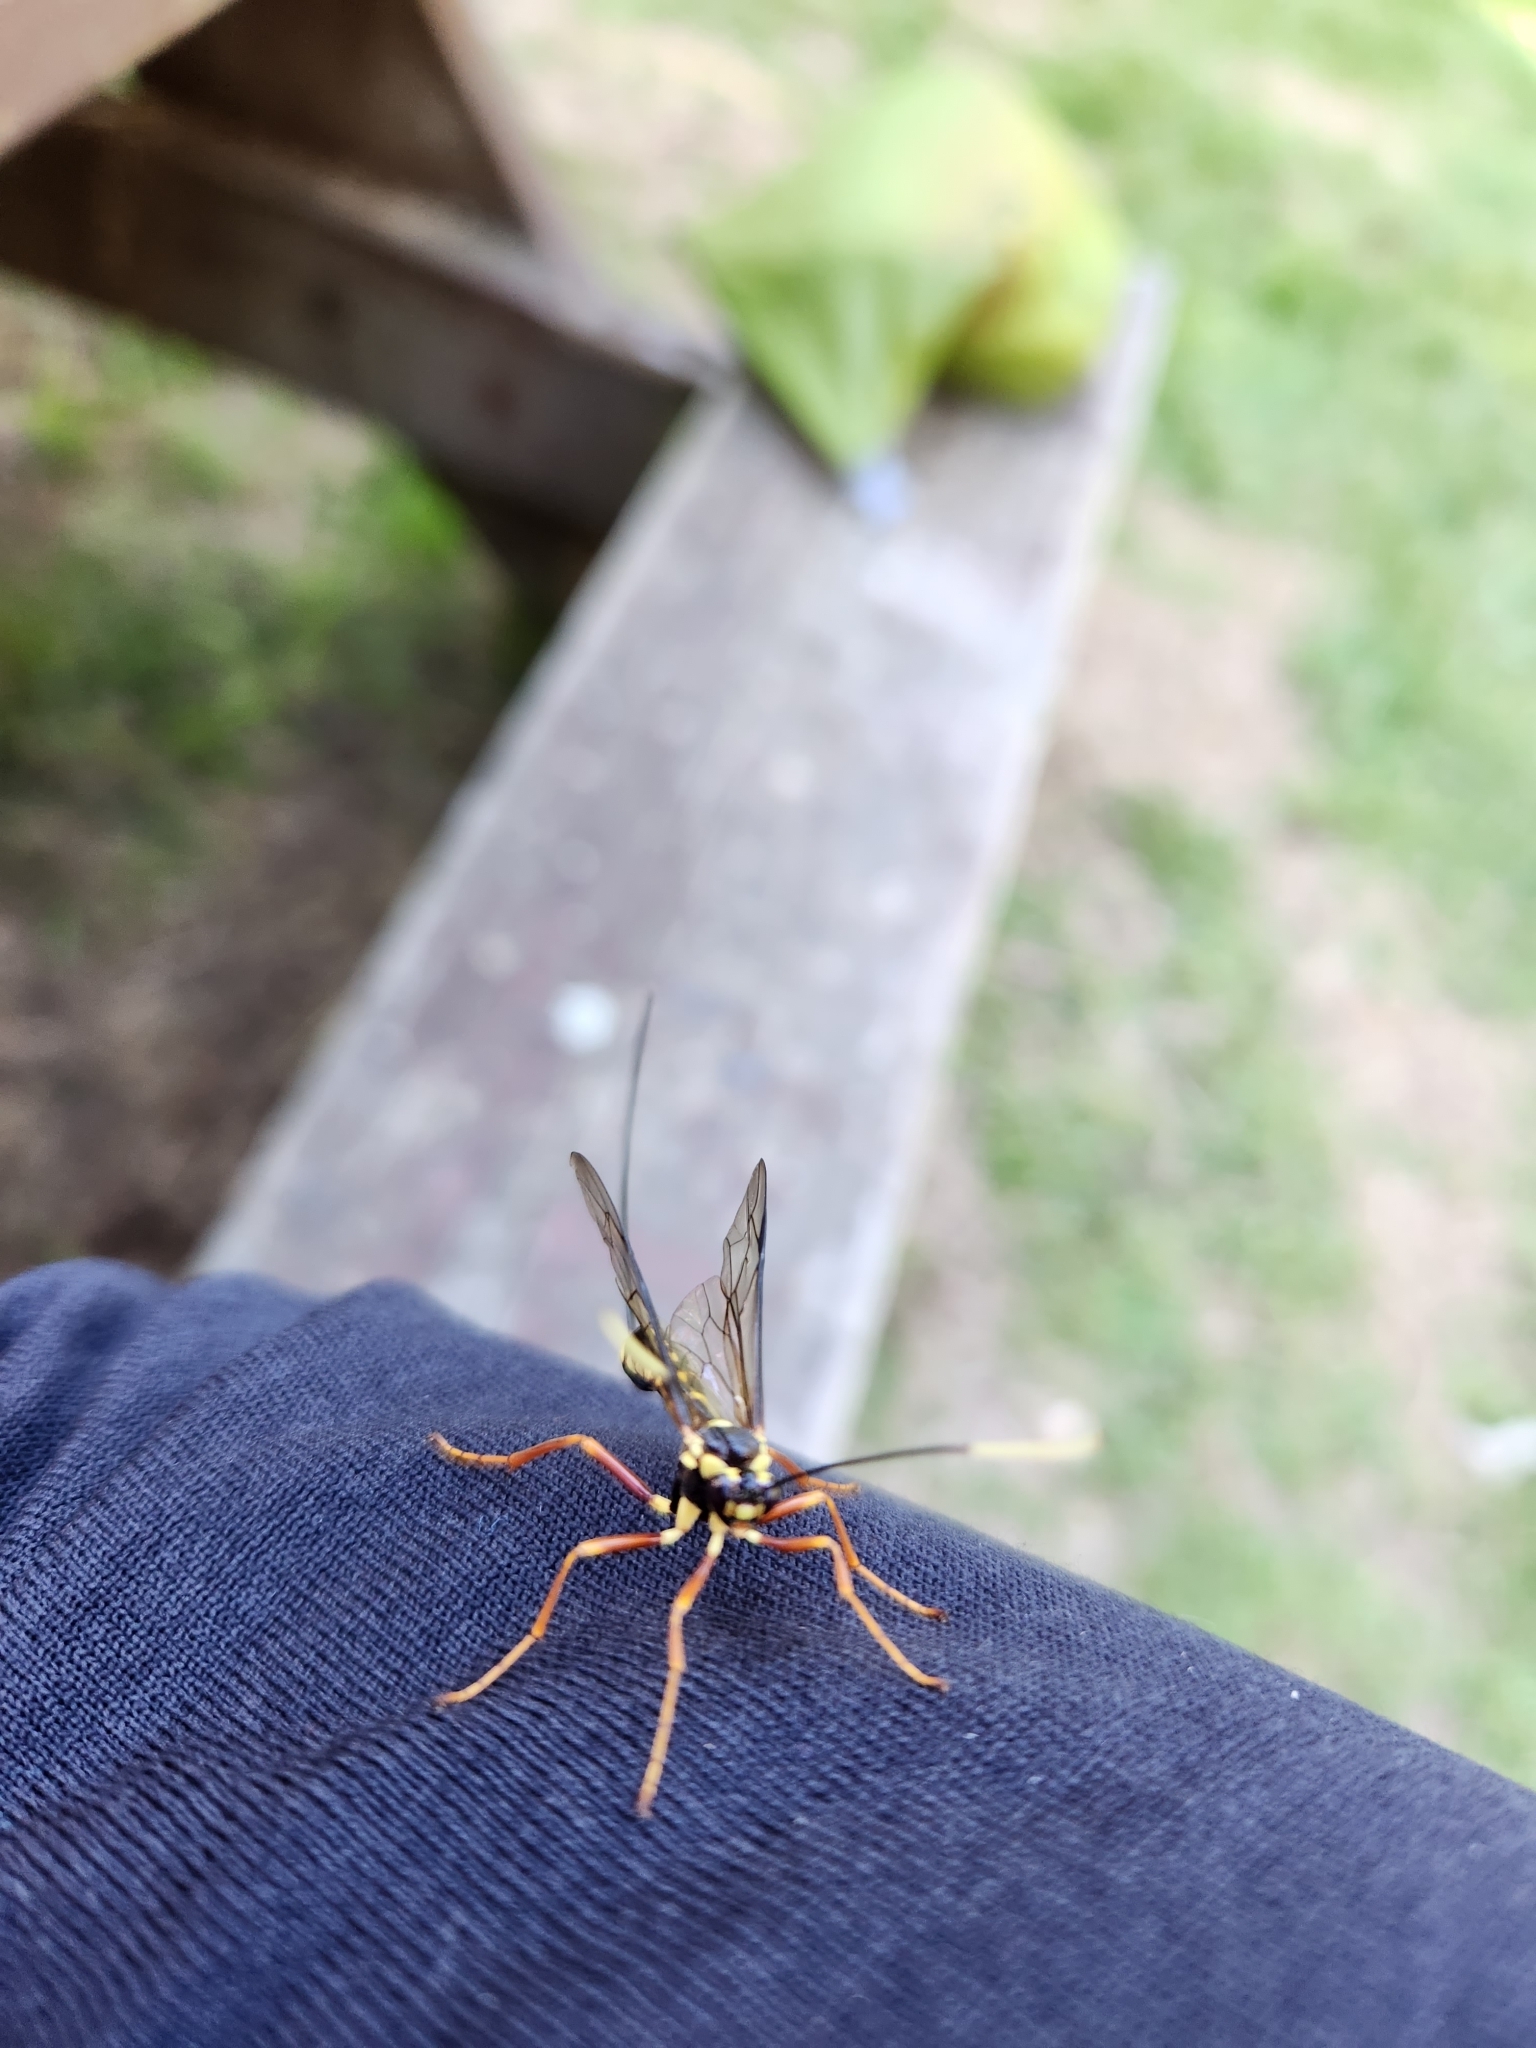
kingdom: Animalia
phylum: Arthropoda
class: Insecta
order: Hymenoptera
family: Ichneumonidae
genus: Certonotus
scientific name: Certonotus fractinervis
